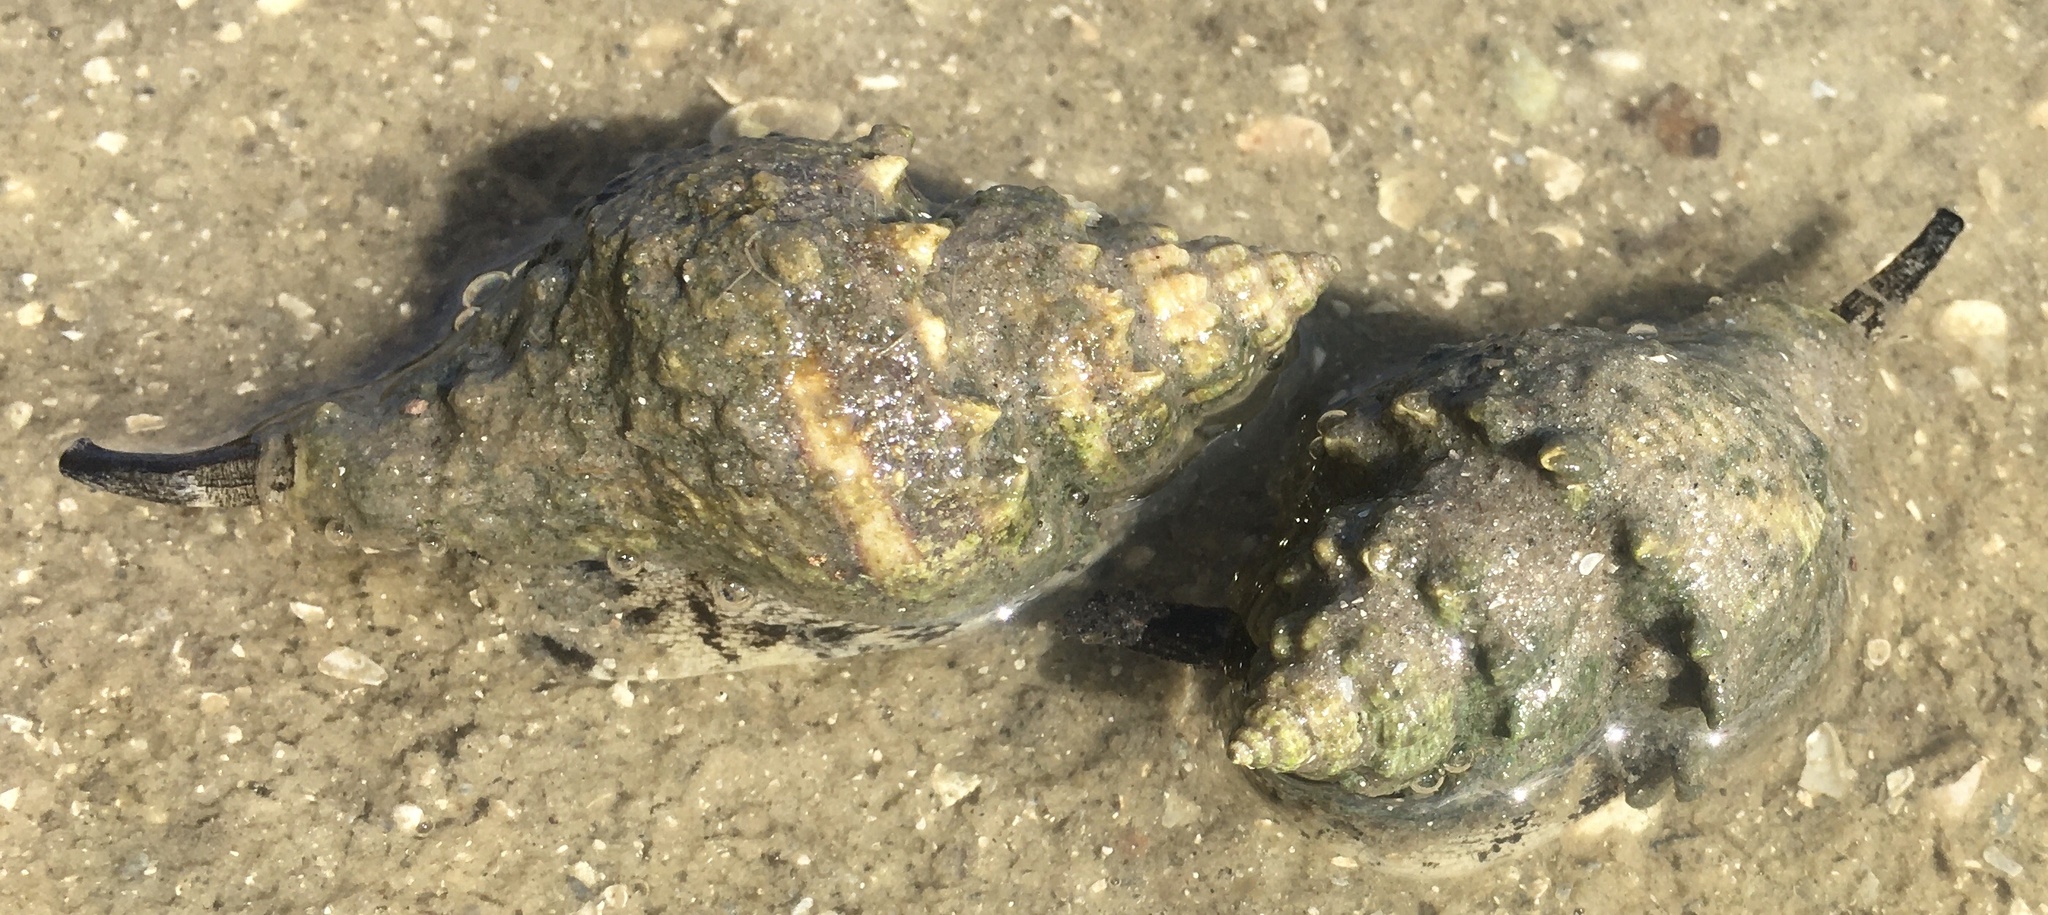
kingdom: Animalia
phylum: Mollusca
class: Gastropoda
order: Neogastropoda
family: Melongenidae
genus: Melongena
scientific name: Melongena corona
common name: American crown conch
